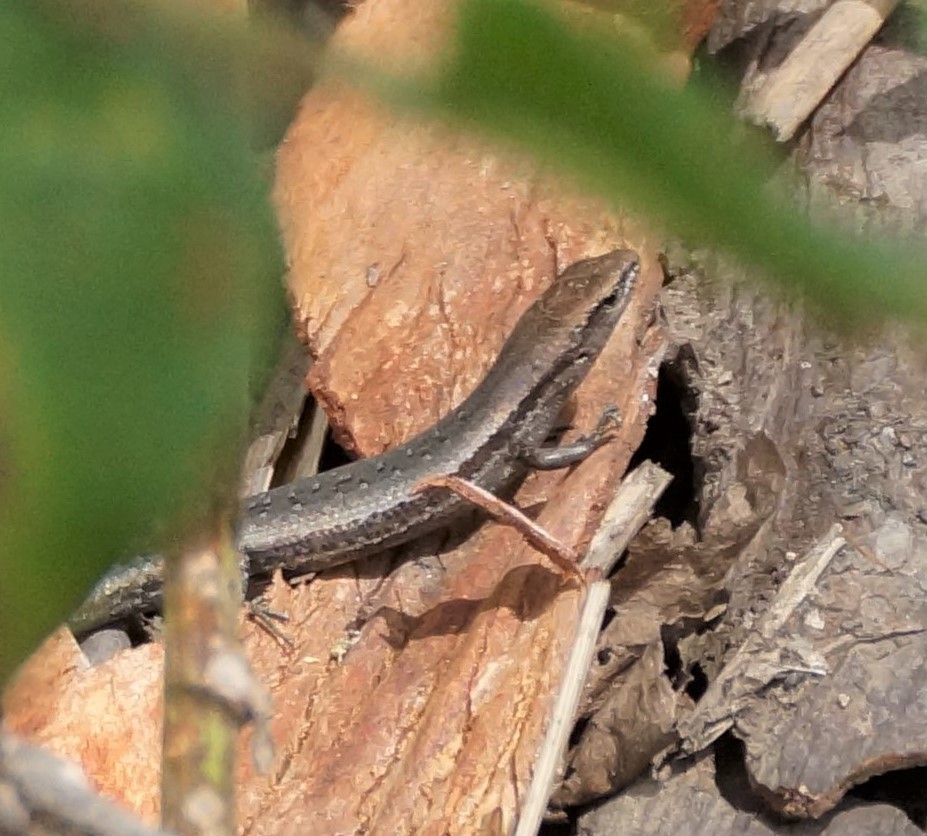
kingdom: Animalia
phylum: Chordata
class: Squamata
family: Scincidae
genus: Lampropholis
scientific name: Lampropholis guichenoti
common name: Garden skink
